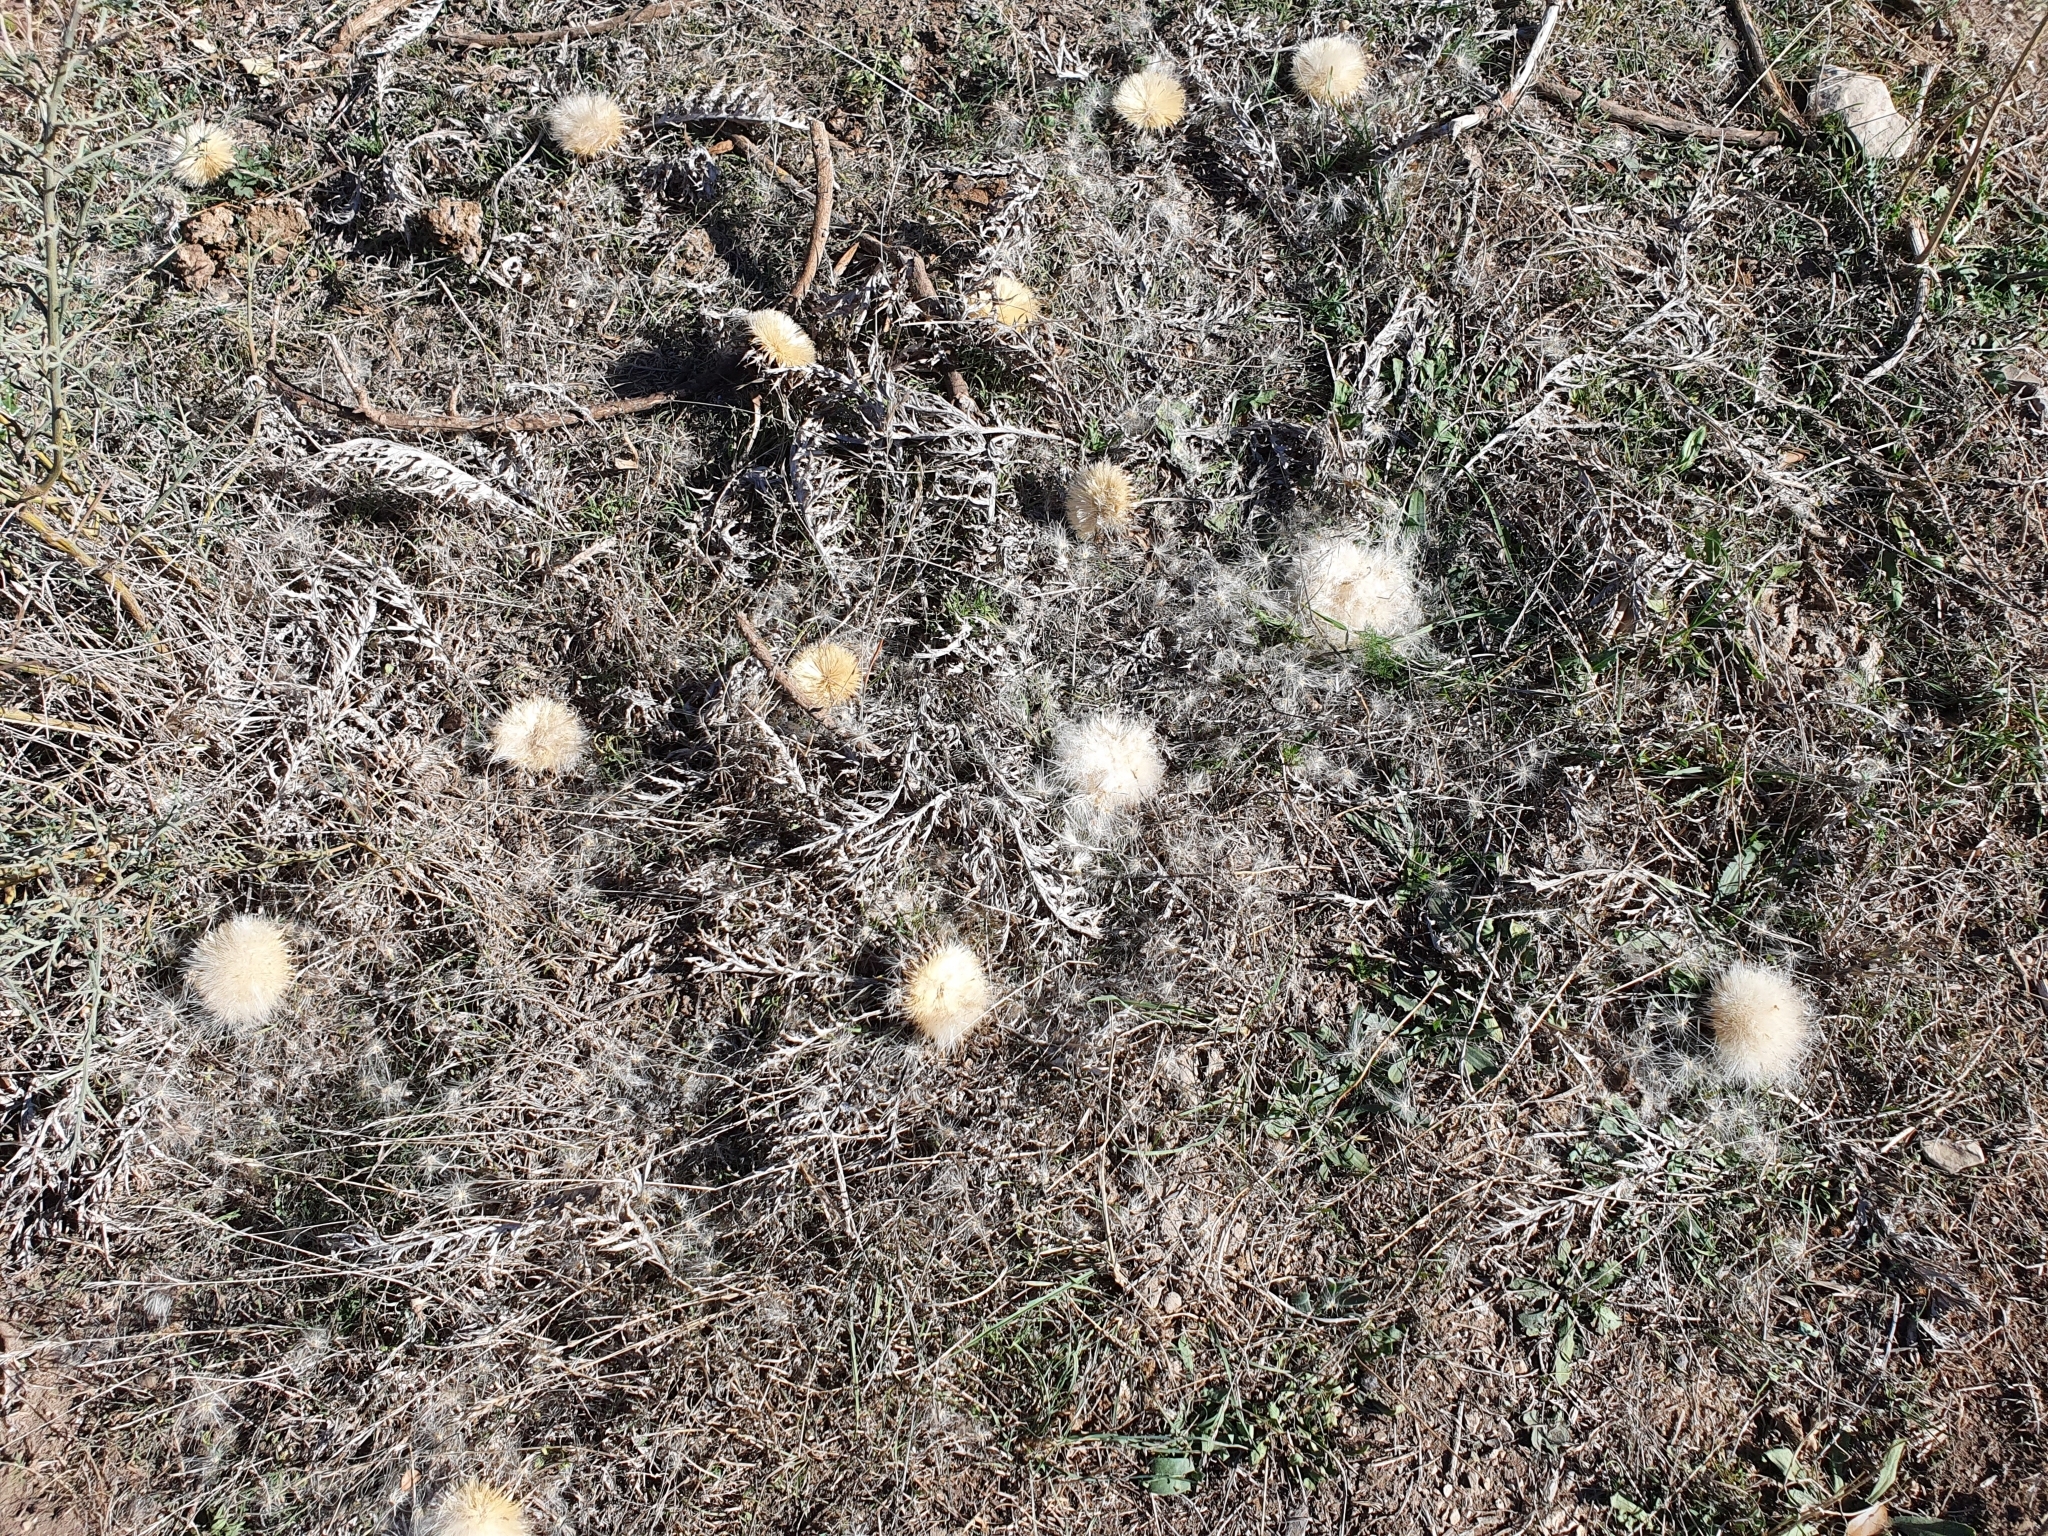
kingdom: Plantae
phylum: Tracheophyta
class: Magnoliopsida
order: Asterales
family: Asteraceae
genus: Chamaeleon
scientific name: Chamaeleon gummifer
